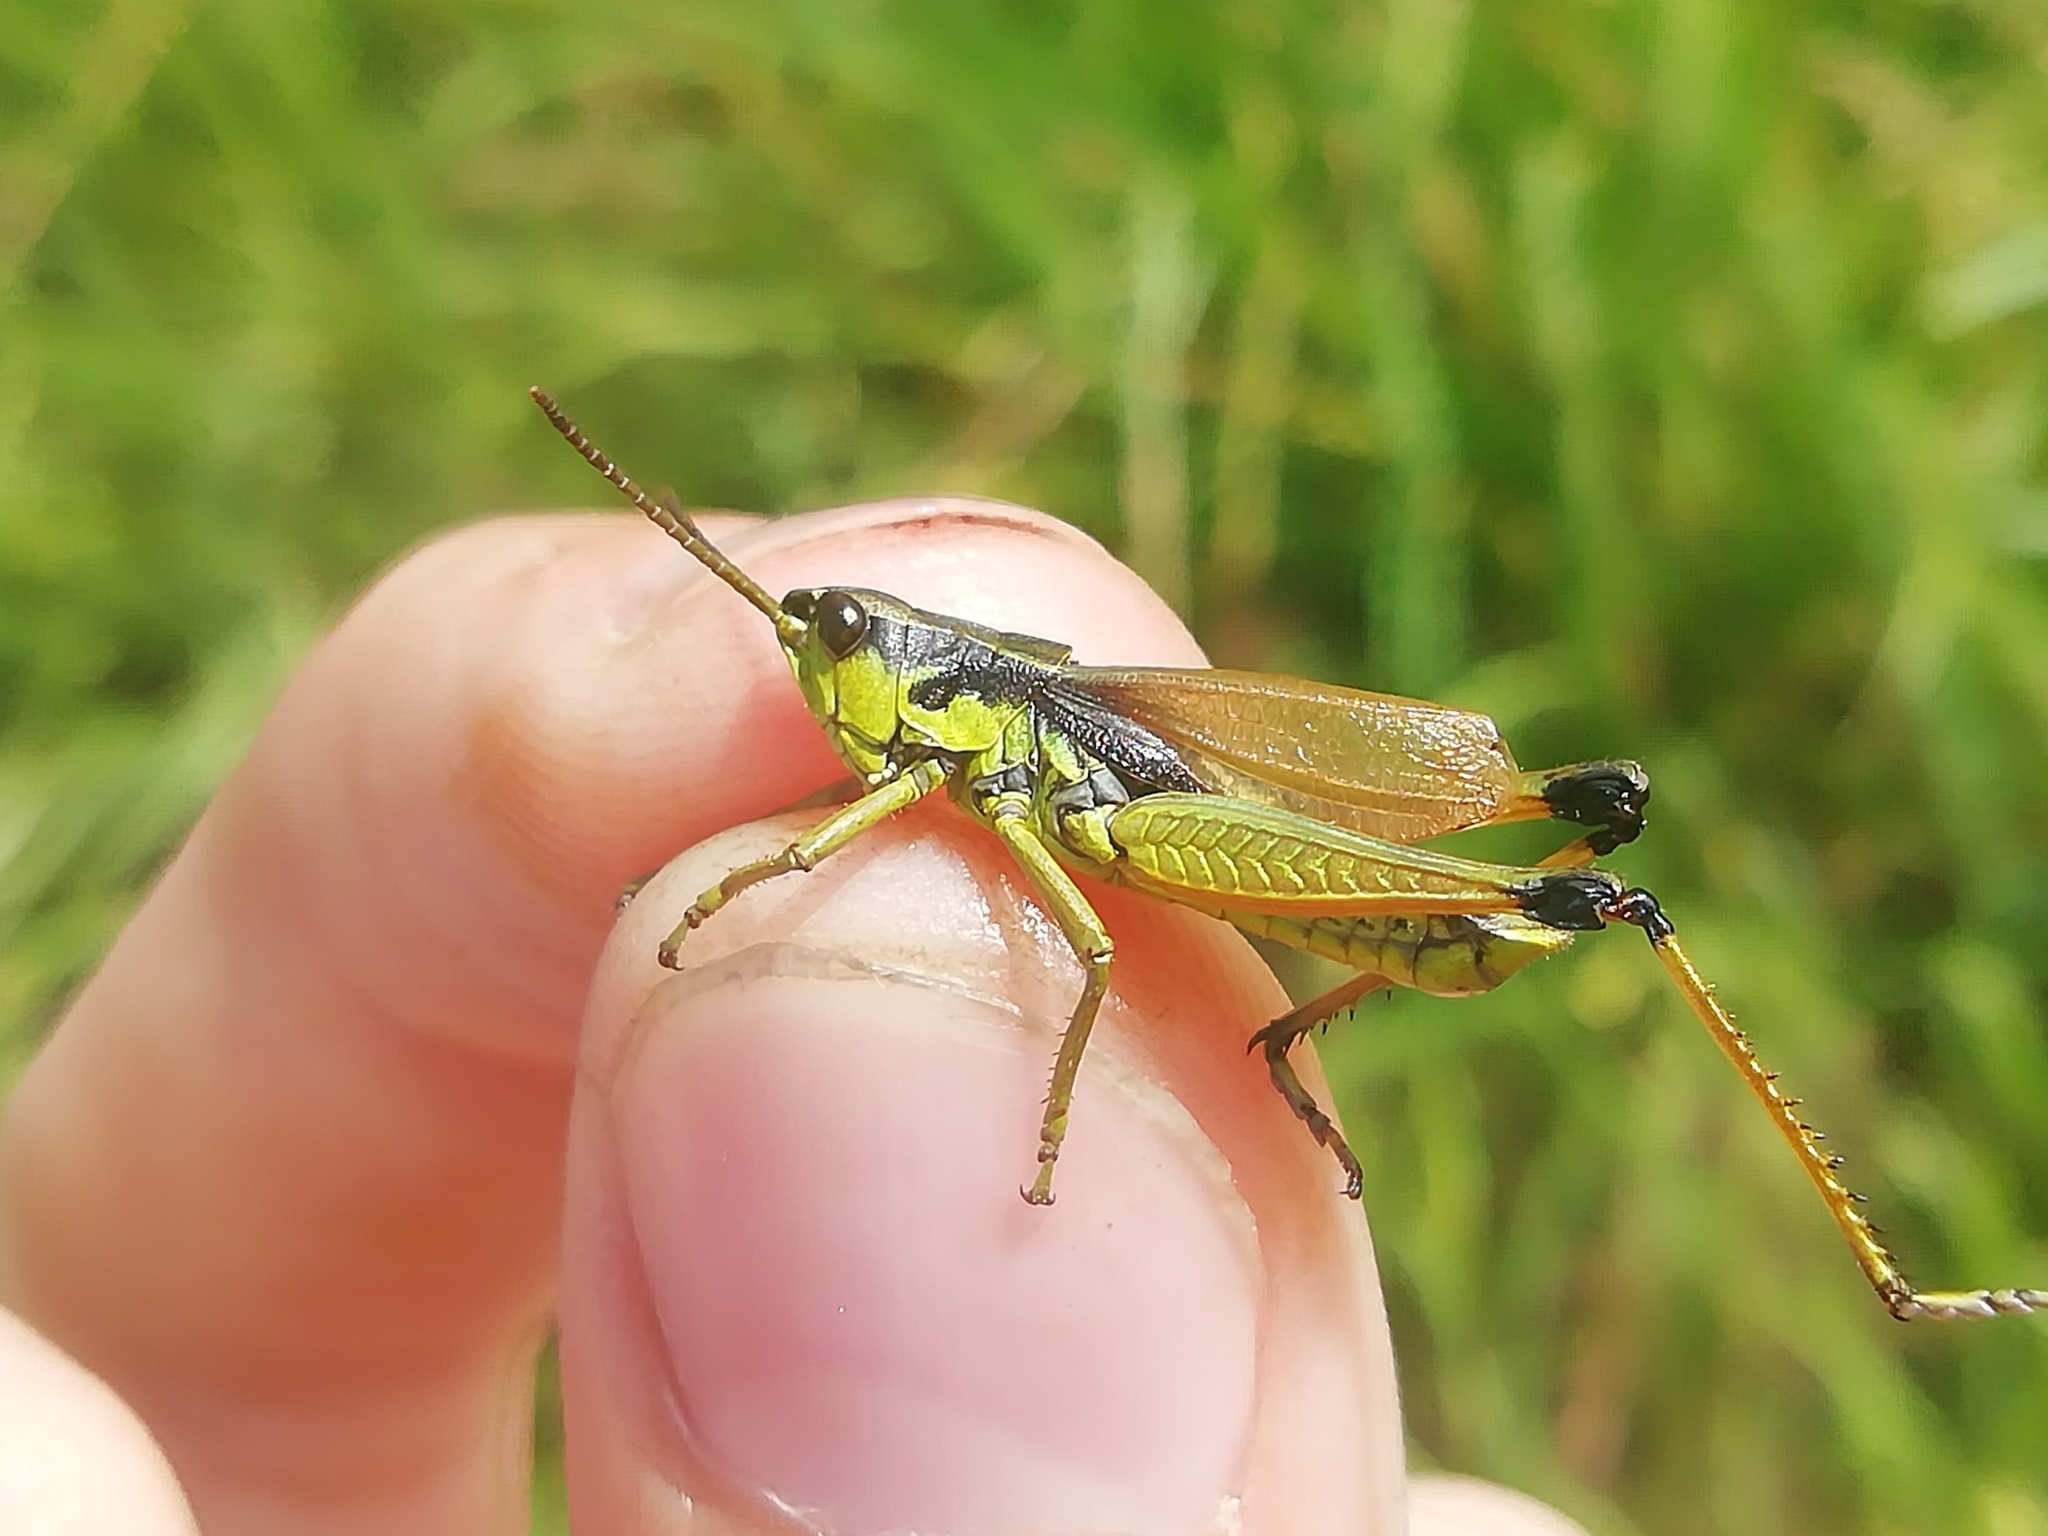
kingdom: Animalia
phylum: Arthropoda
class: Insecta
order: Orthoptera
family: Acrididae
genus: Podismopsis
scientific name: Podismopsis poppiusi
